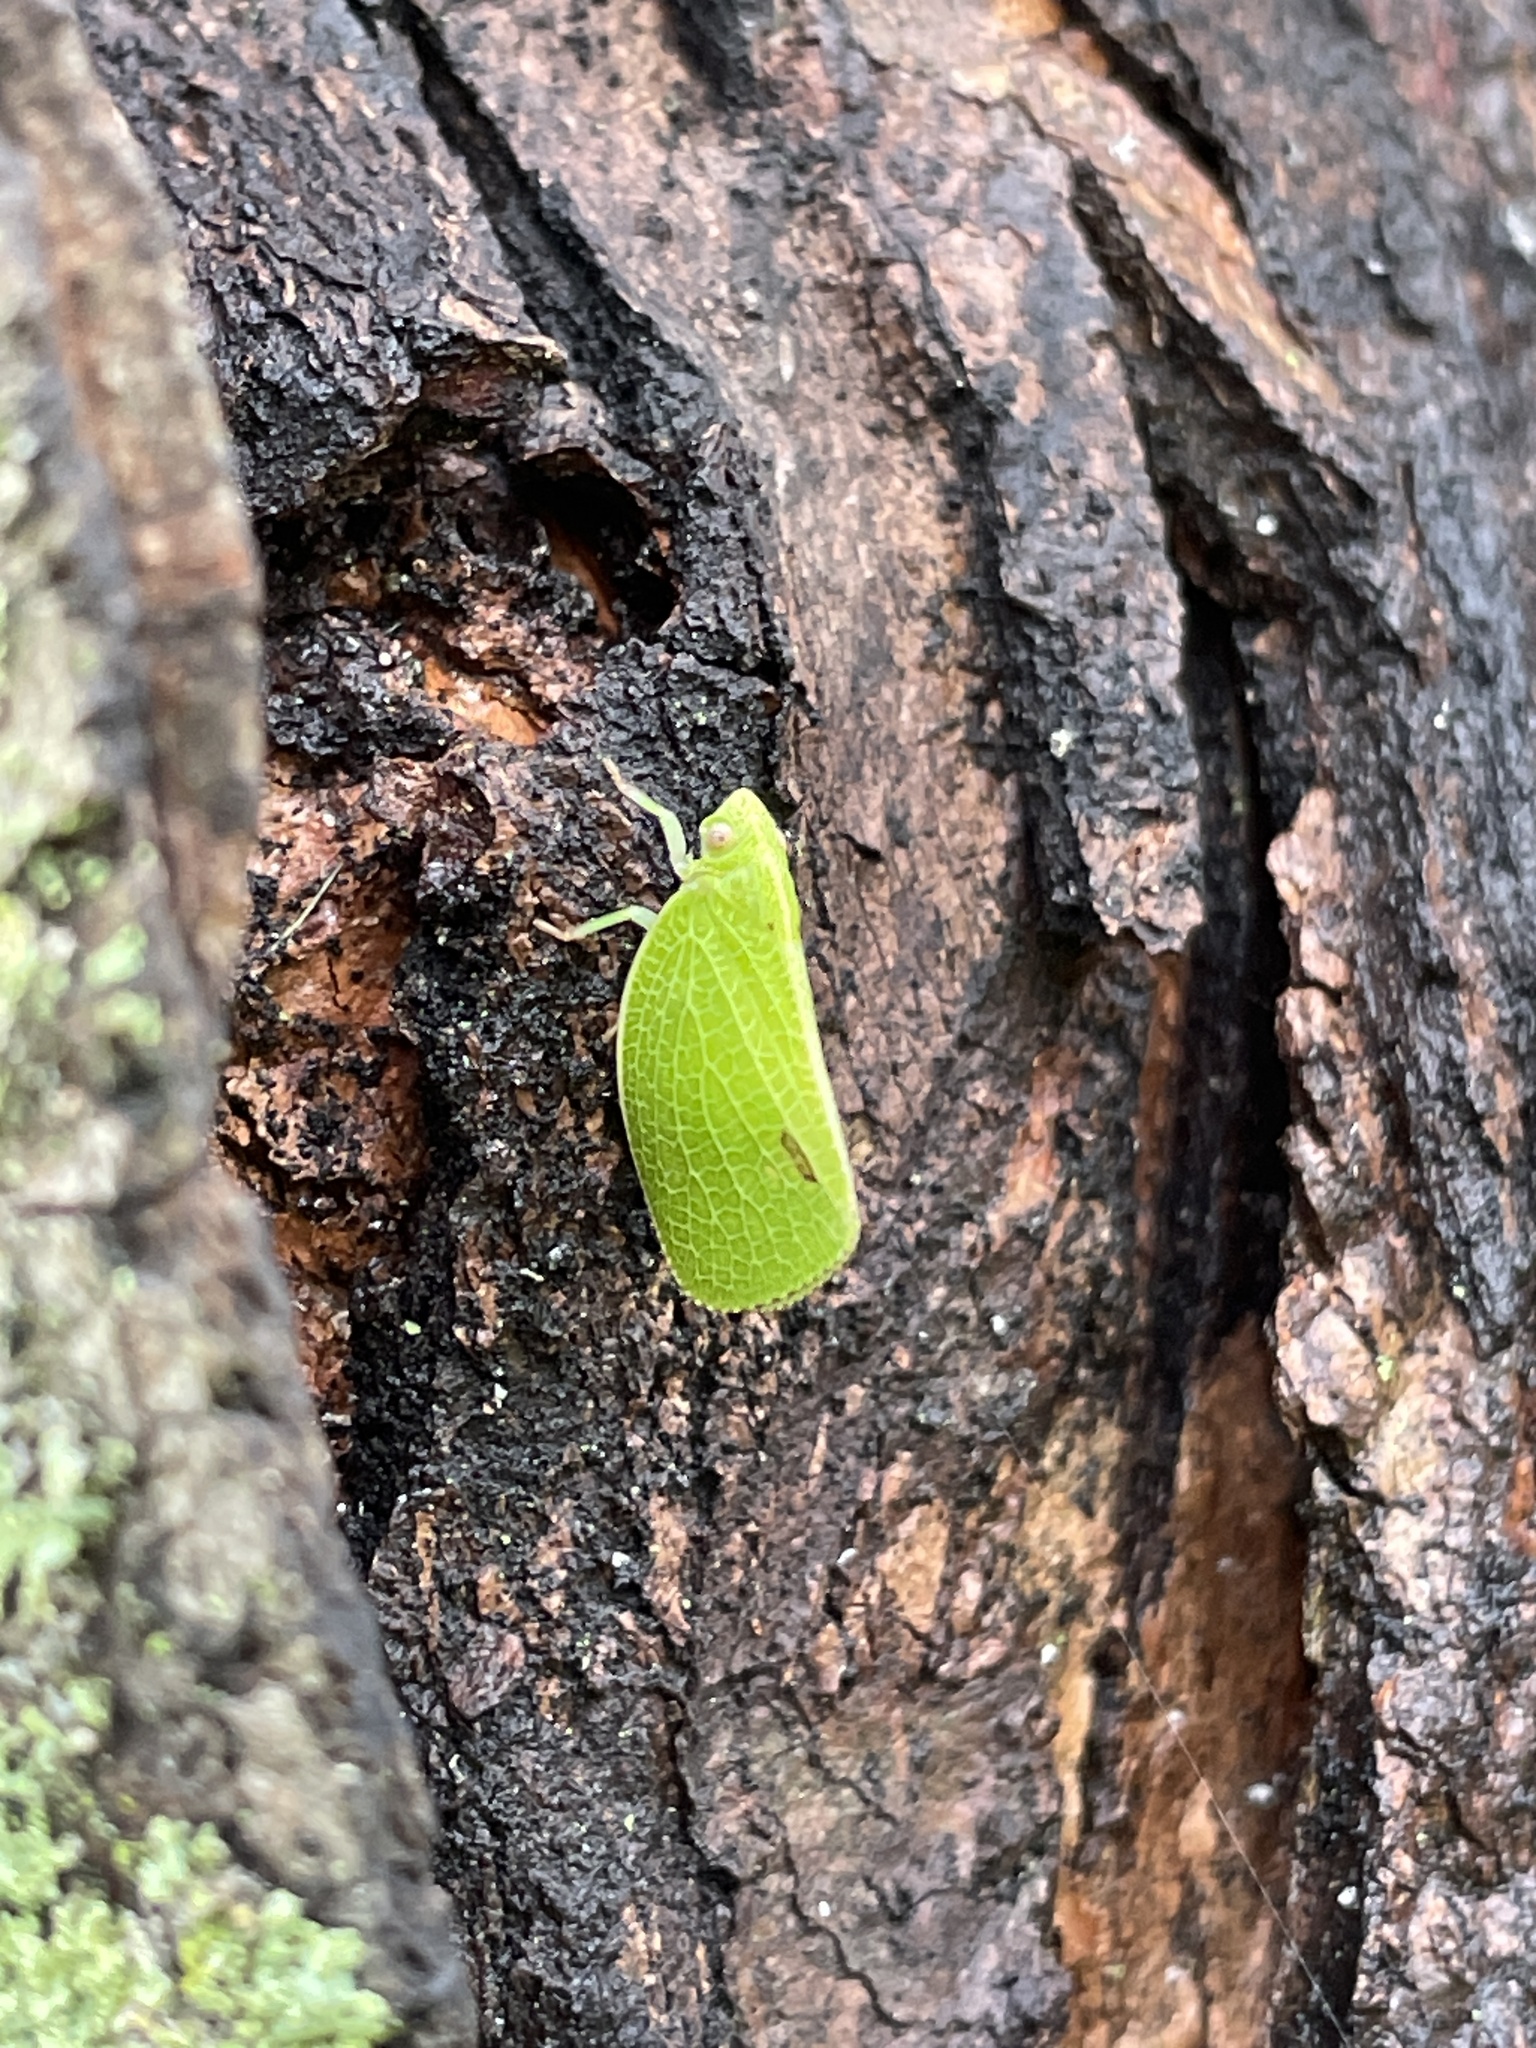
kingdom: Animalia
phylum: Arthropoda
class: Insecta
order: Hemiptera
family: Acanaloniidae
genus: Acanalonia
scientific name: Acanalonia conica
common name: Green cone-headed planthopper
